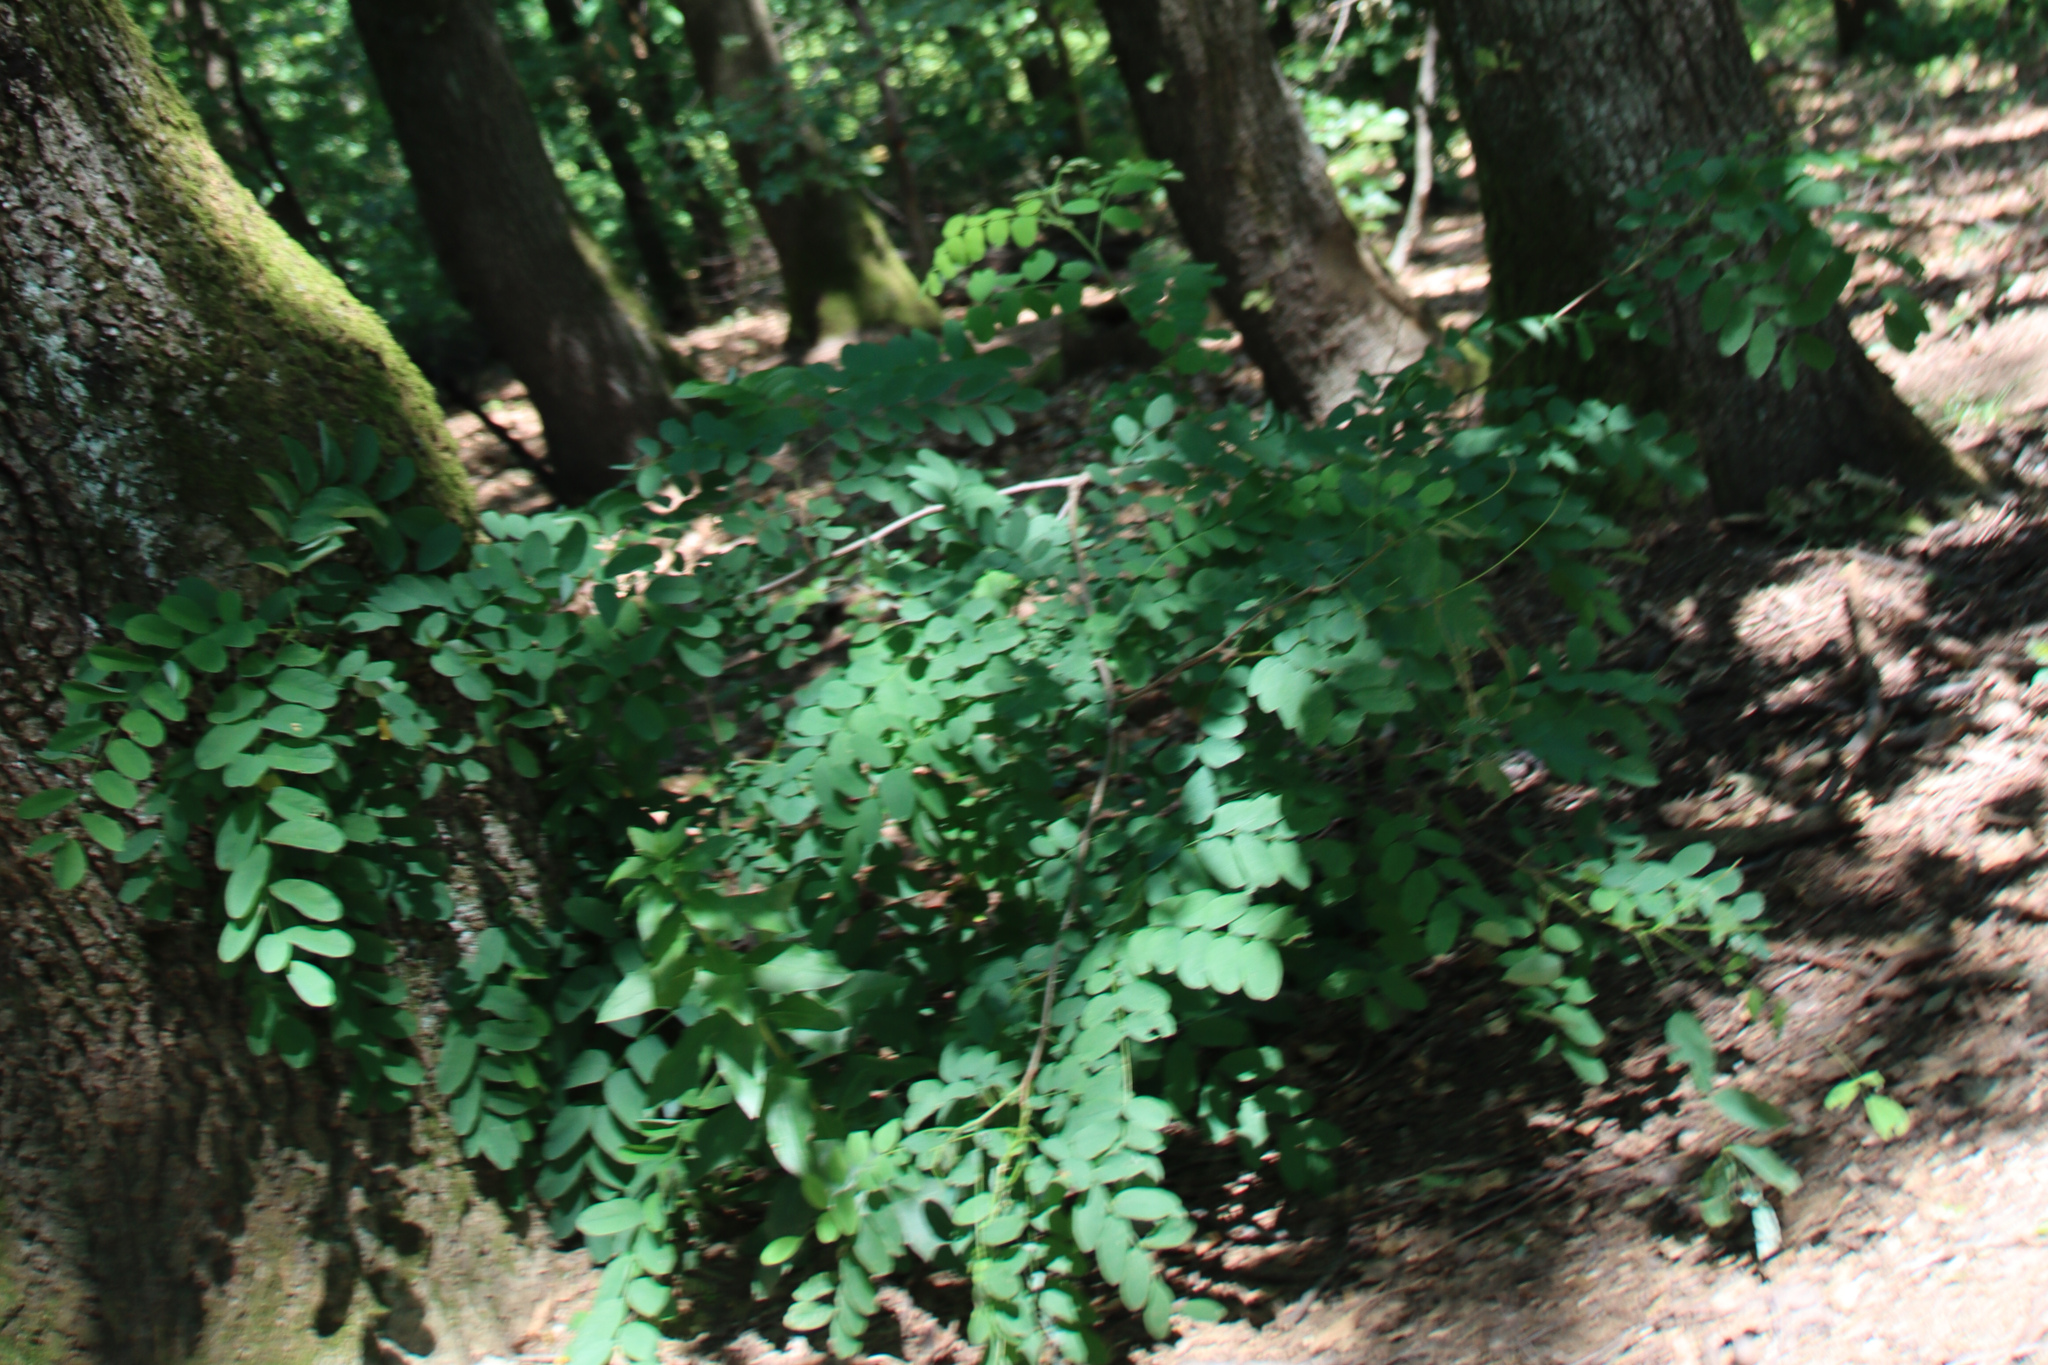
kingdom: Plantae
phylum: Tracheophyta
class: Magnoliopsida
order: Fabales
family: Fabaceae
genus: Robinia
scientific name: Robinia pseudoacacia
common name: Black locust
